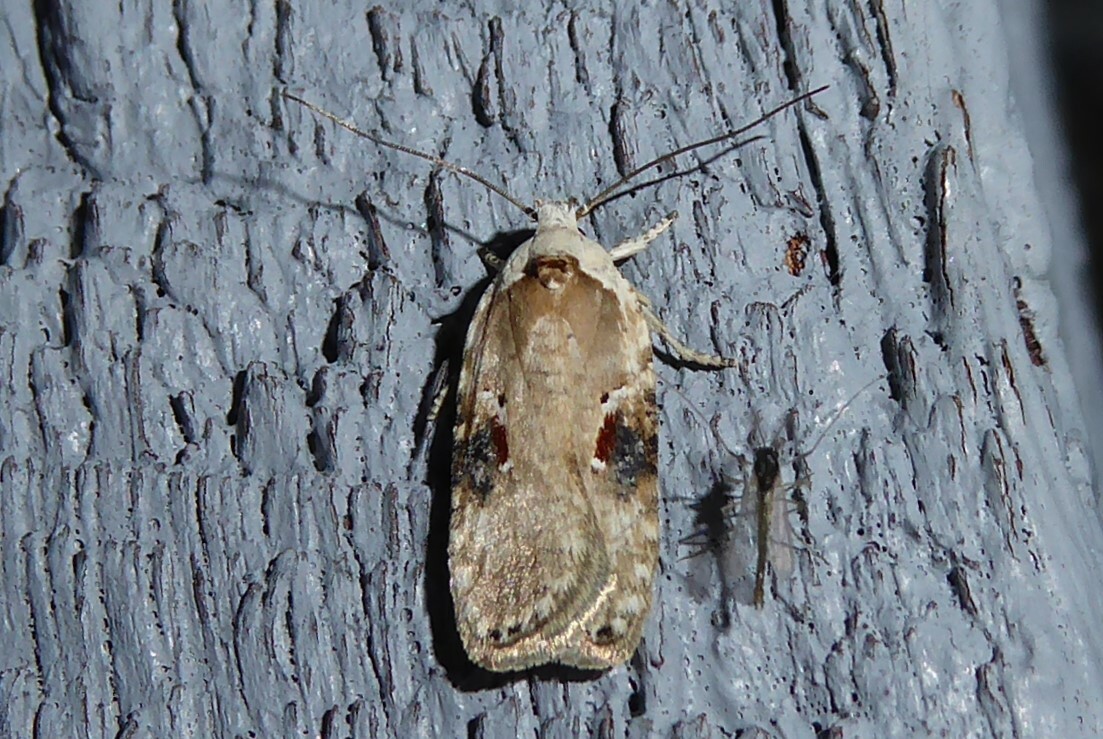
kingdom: Animalia
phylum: Arthropoda
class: Insecta
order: Lepidoptera
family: Depressariidae
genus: Agonopterix
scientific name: Agonopterix alstroemeriana
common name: Moth
